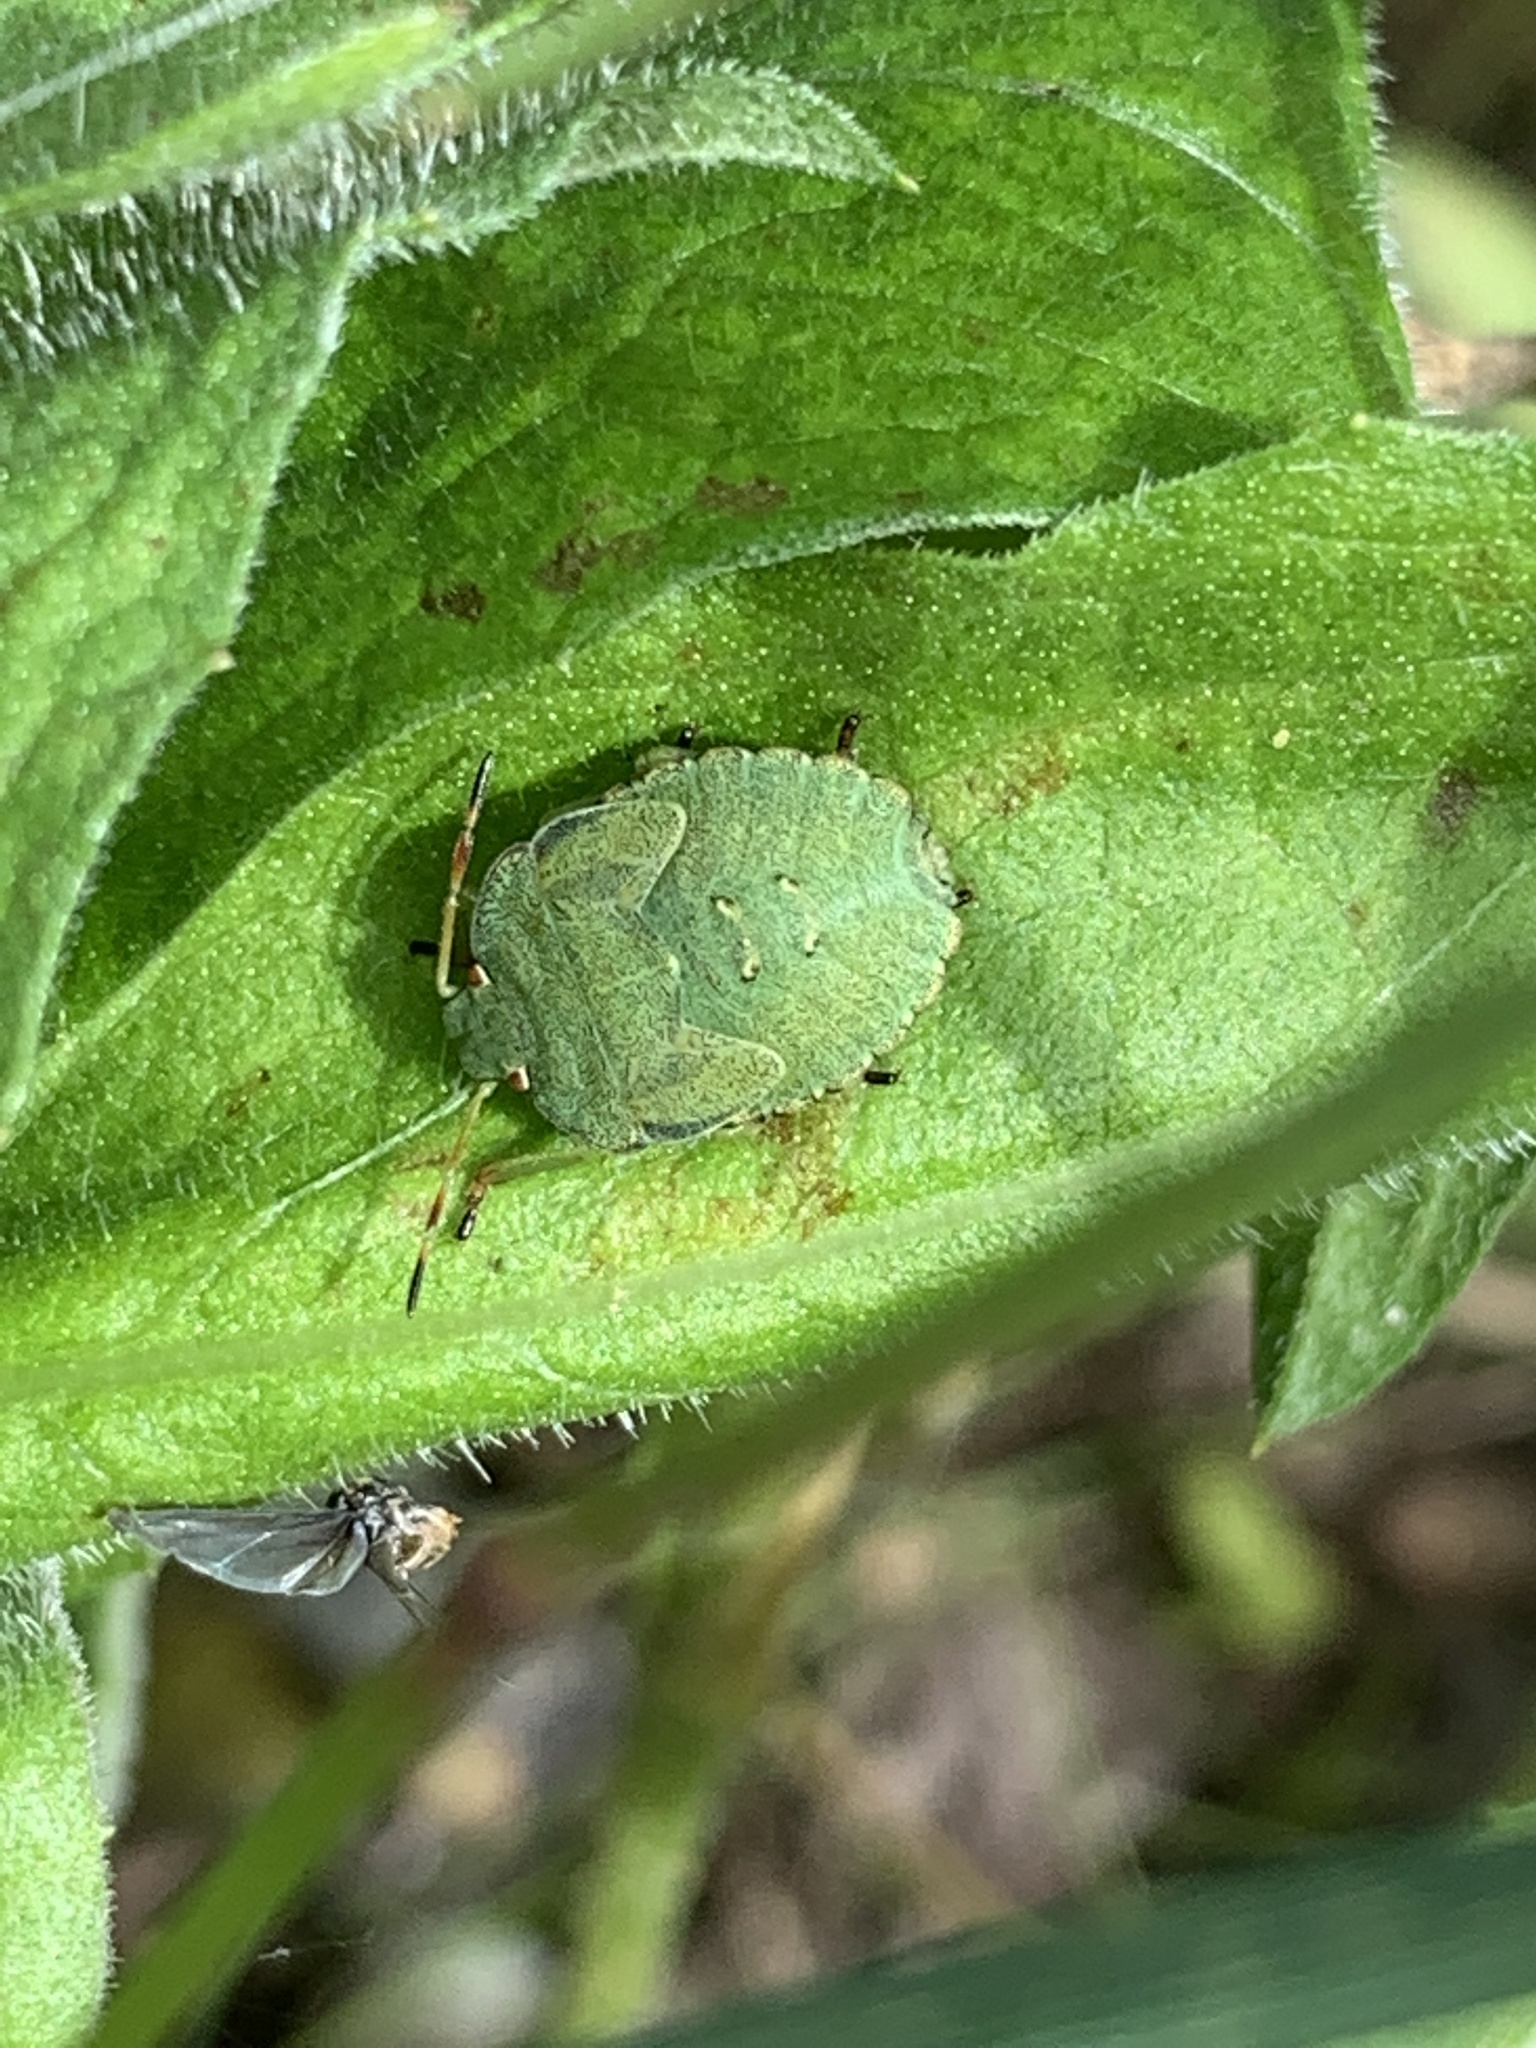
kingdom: Animalia
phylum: Arthropoda
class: Insecta
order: Hemiptera
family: Pentatomidae
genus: Palomena
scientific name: Palomena prasina
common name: Green shieldbug
